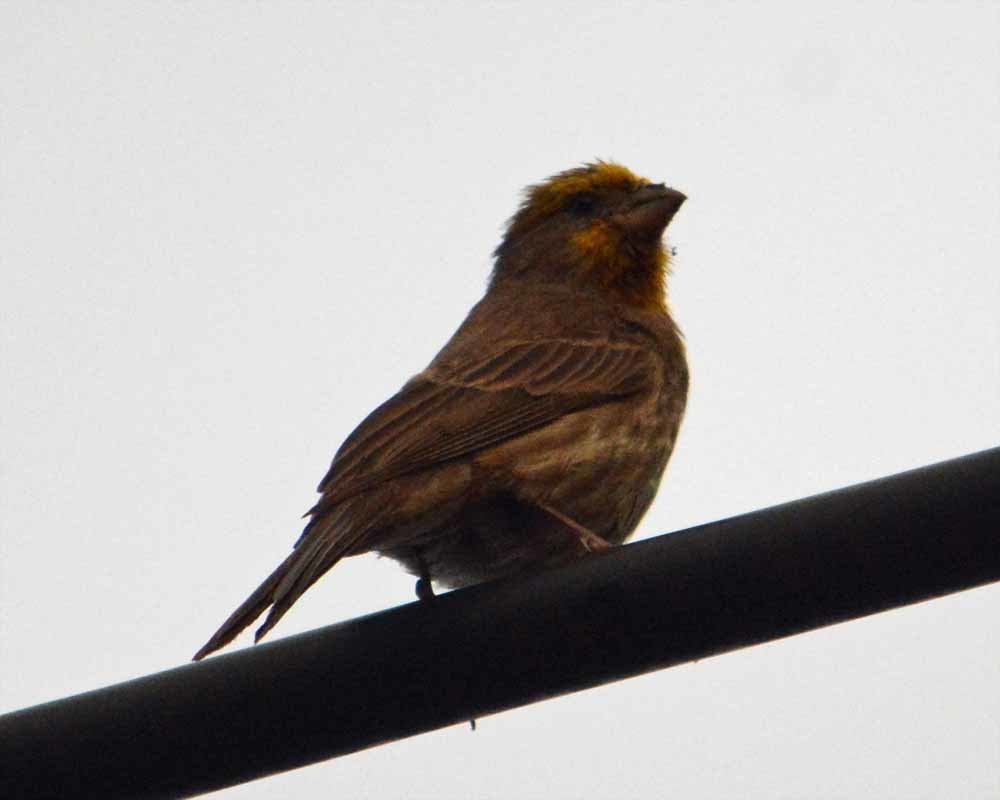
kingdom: Animalia
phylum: Chordata
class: Aves
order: Passeriformes
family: Fringillidae
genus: Haemorhous
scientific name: Haemorhous mexicanus
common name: House finch
